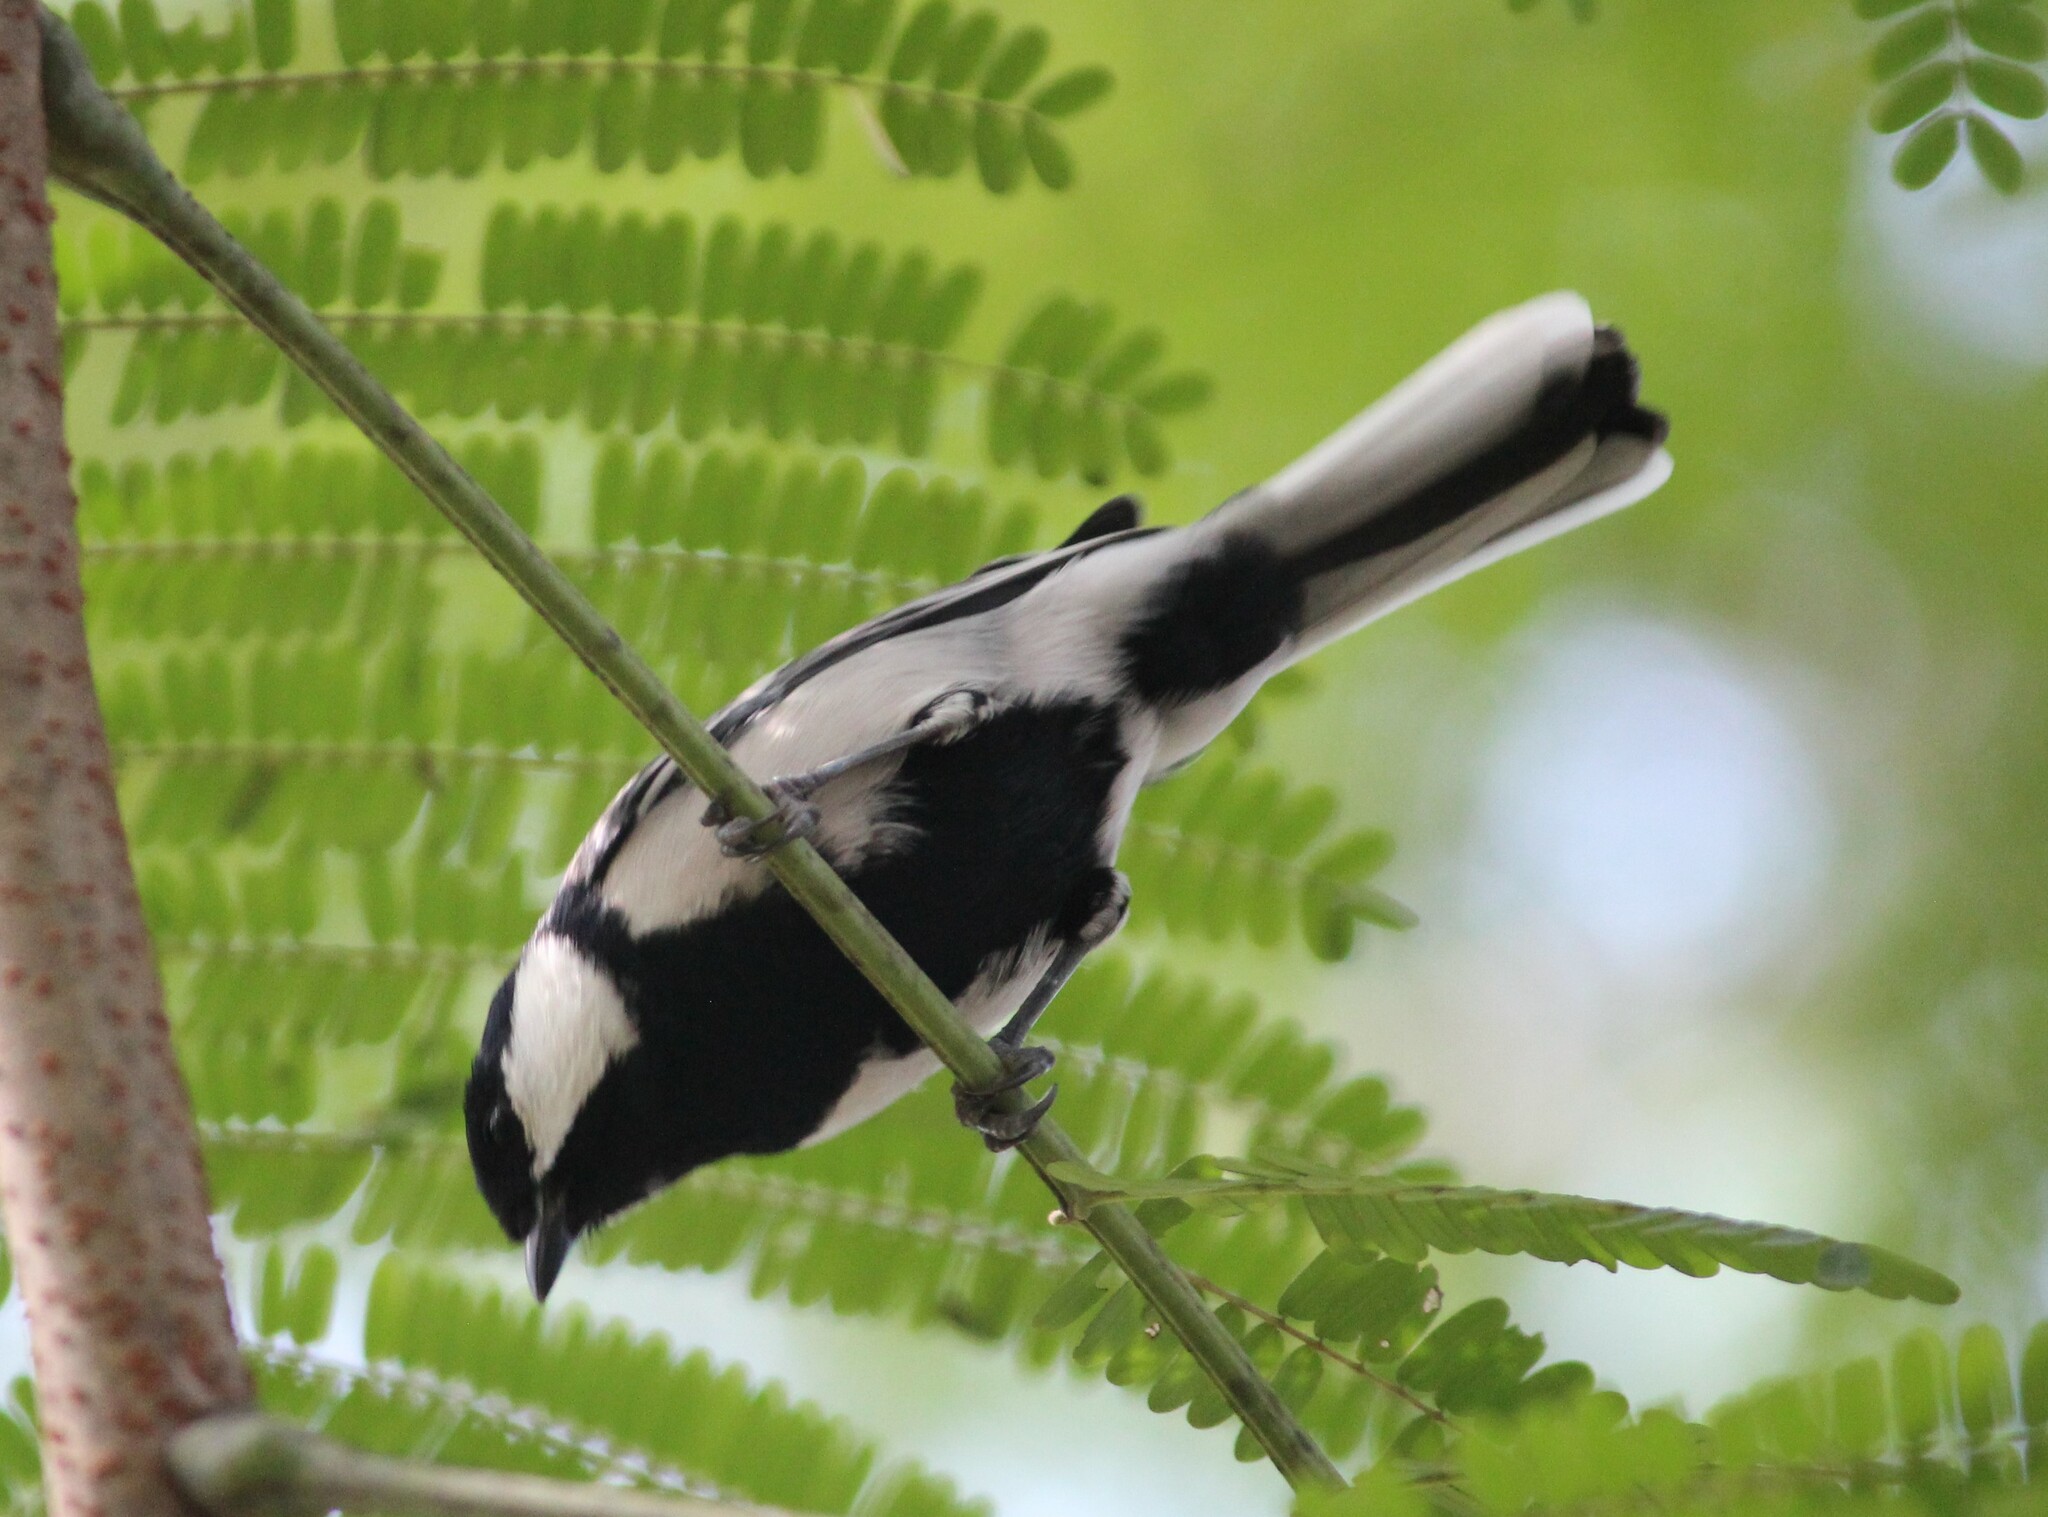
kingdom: Animalia
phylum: Chordata
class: Aves
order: Passeriformes
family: Paridae
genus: Parus
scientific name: Parus cinereus
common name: Cinereous tit
